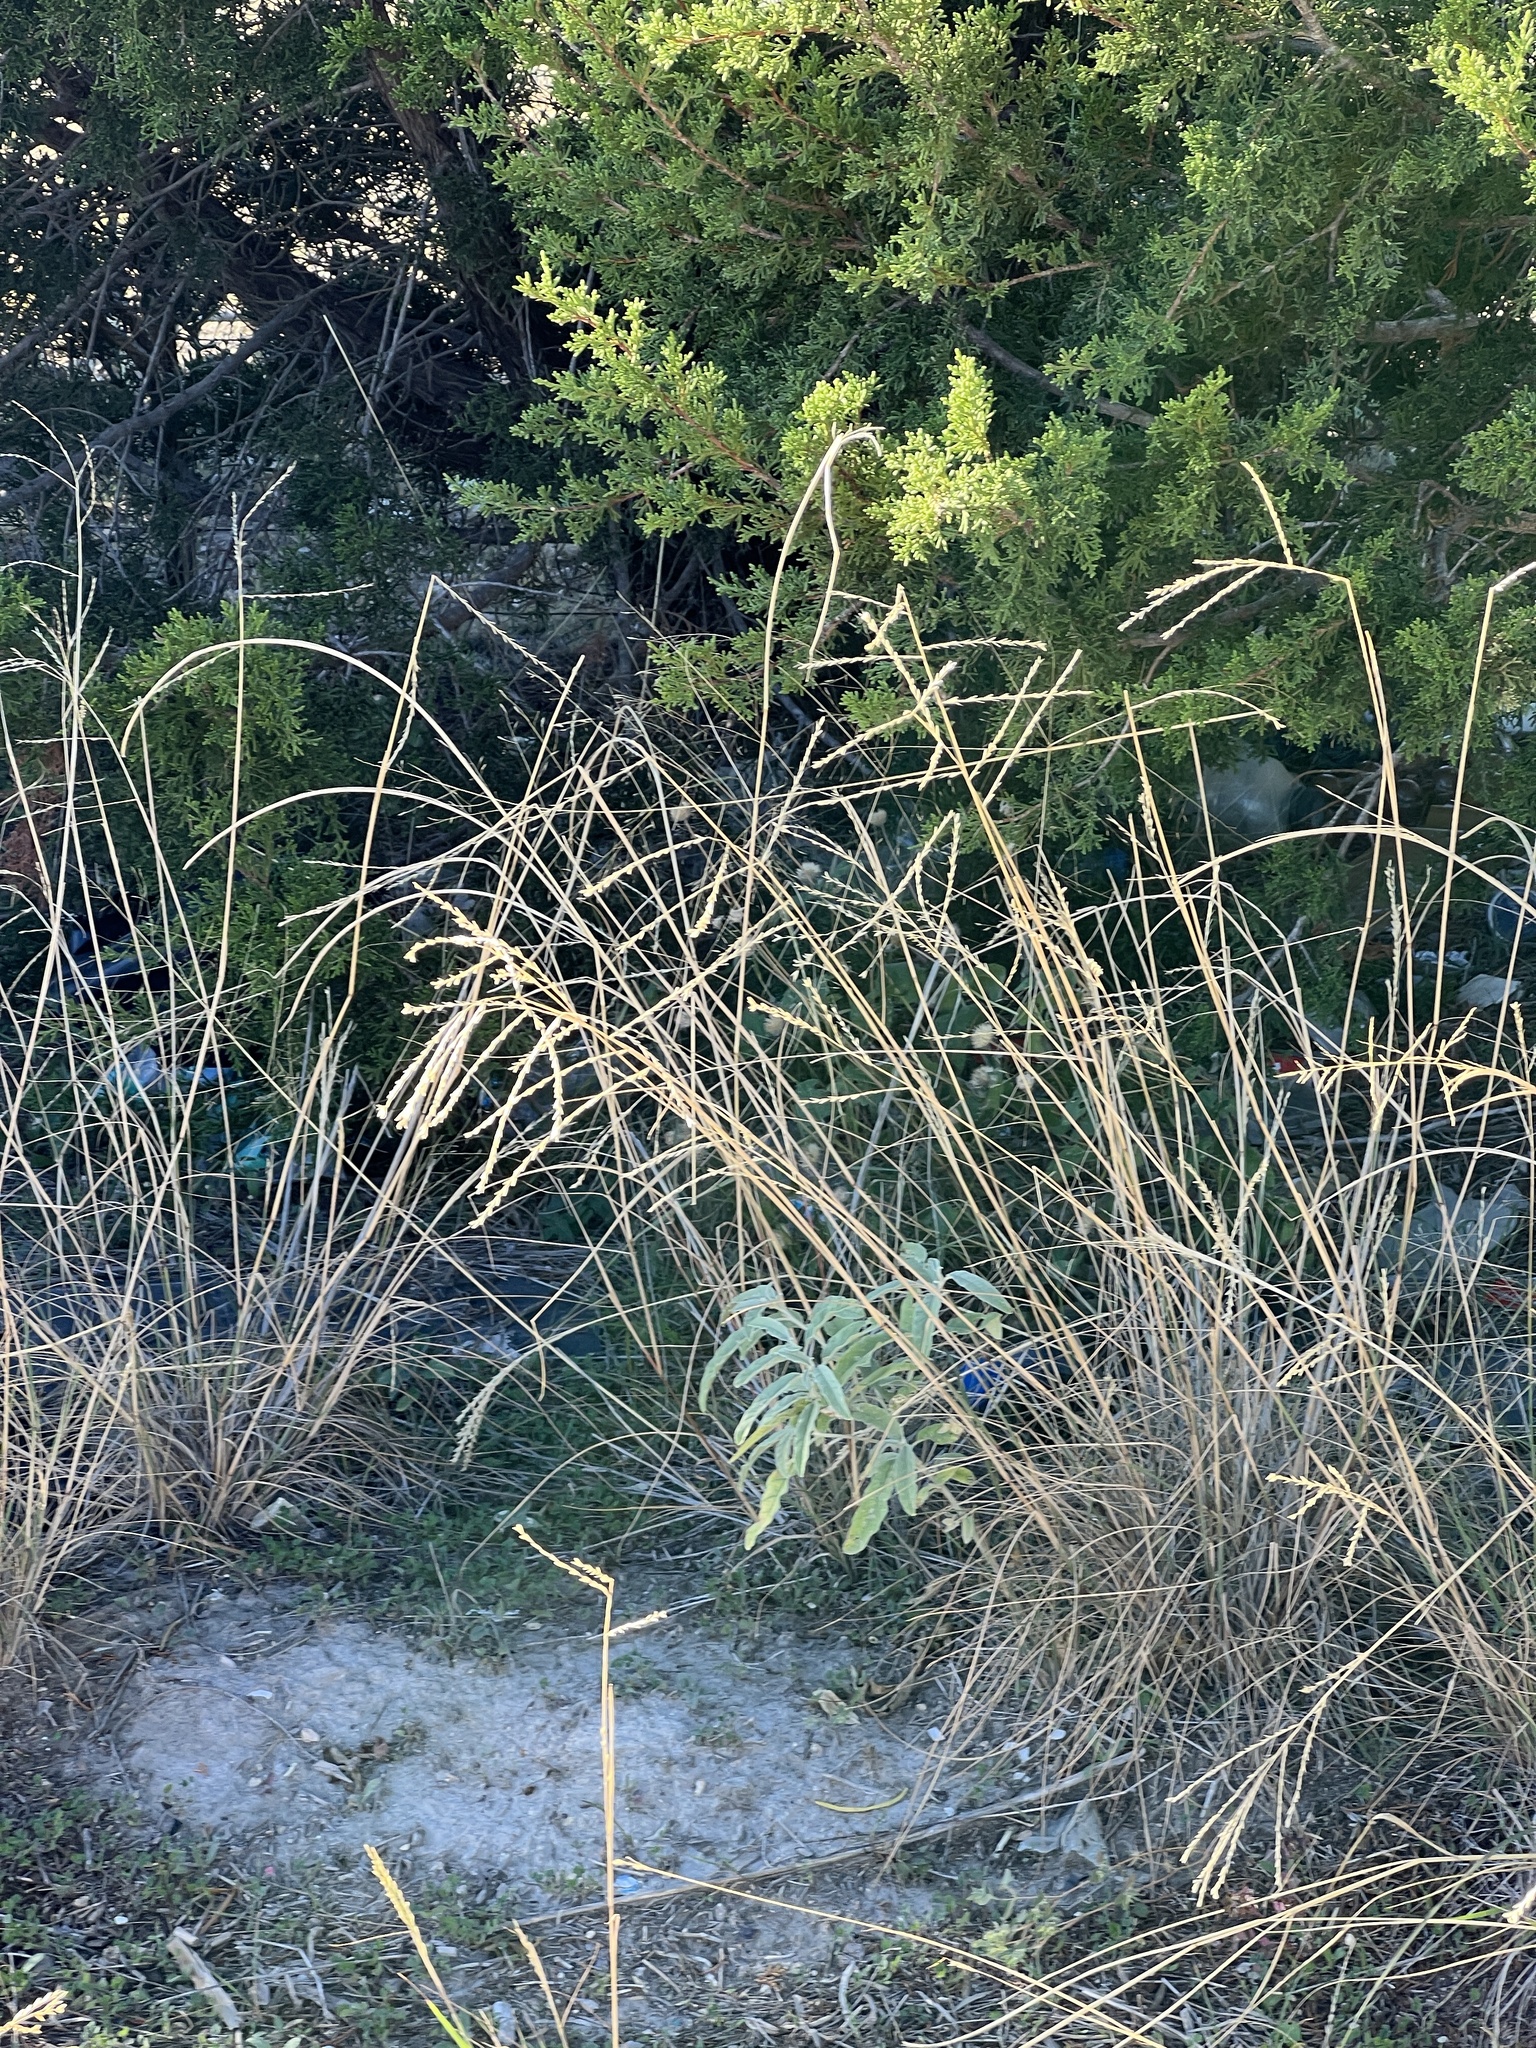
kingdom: Plantae
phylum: Tracheophyta
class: Liliopsida
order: Poales
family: Poaceae
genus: Disakisperma
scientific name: Disakisperma dubium
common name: Green sprangletop
